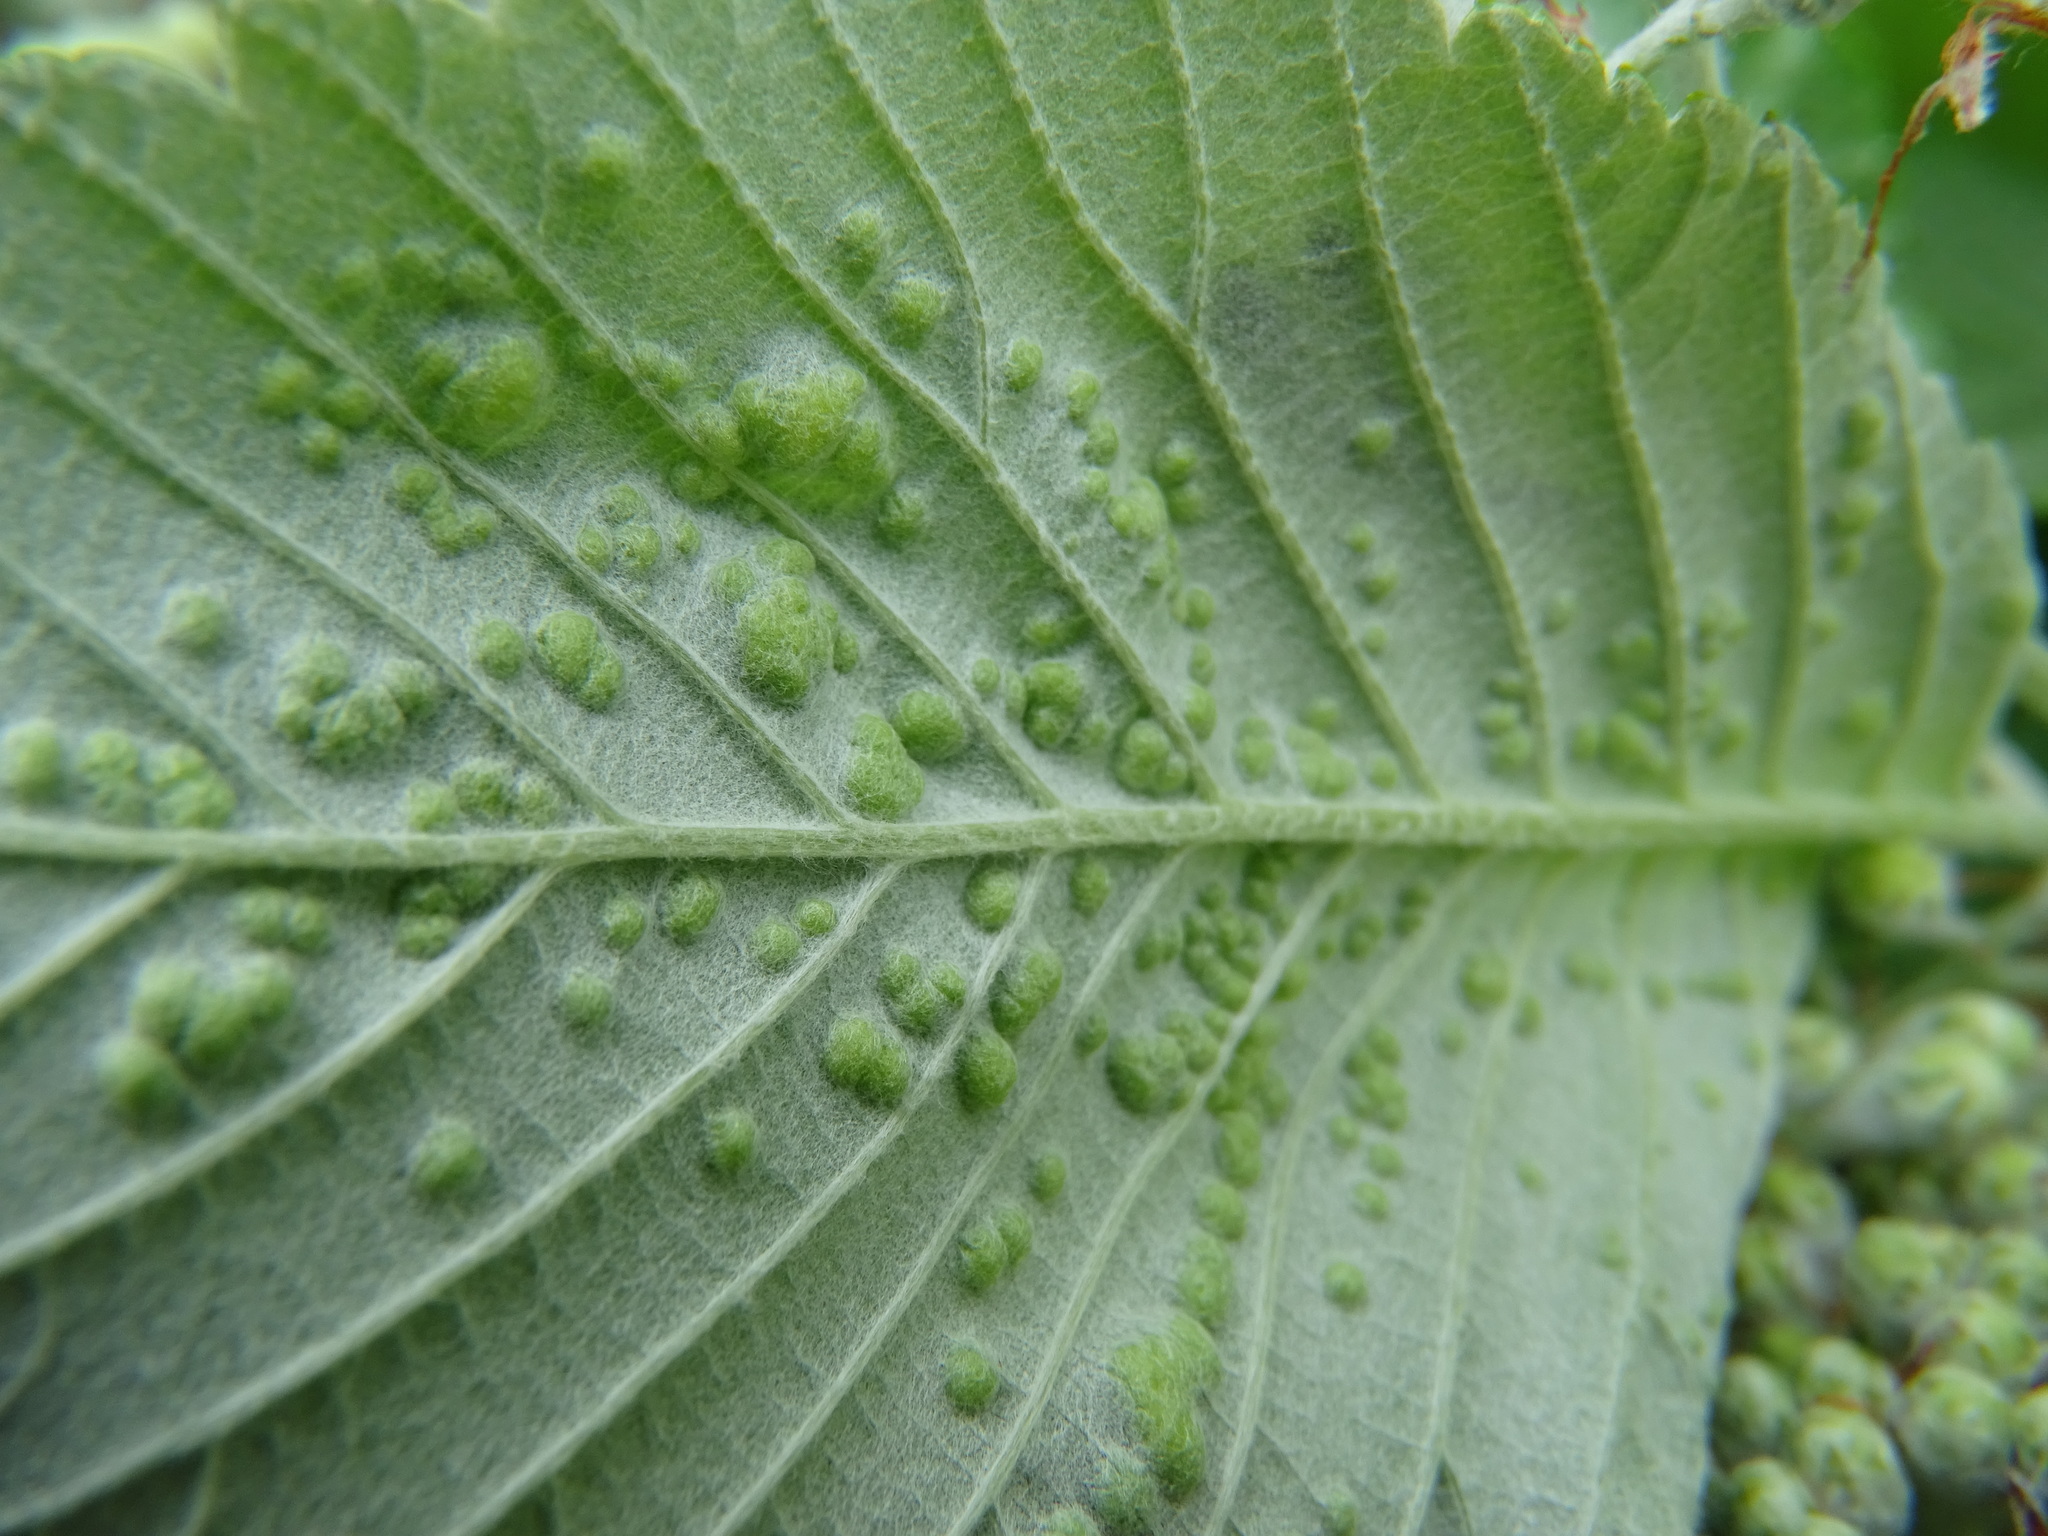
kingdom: Animalia
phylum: Arthropoda
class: Arachnida
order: Trombidiformes
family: Eriophyidae
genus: Eriophyes
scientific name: Eriophyes arianus
